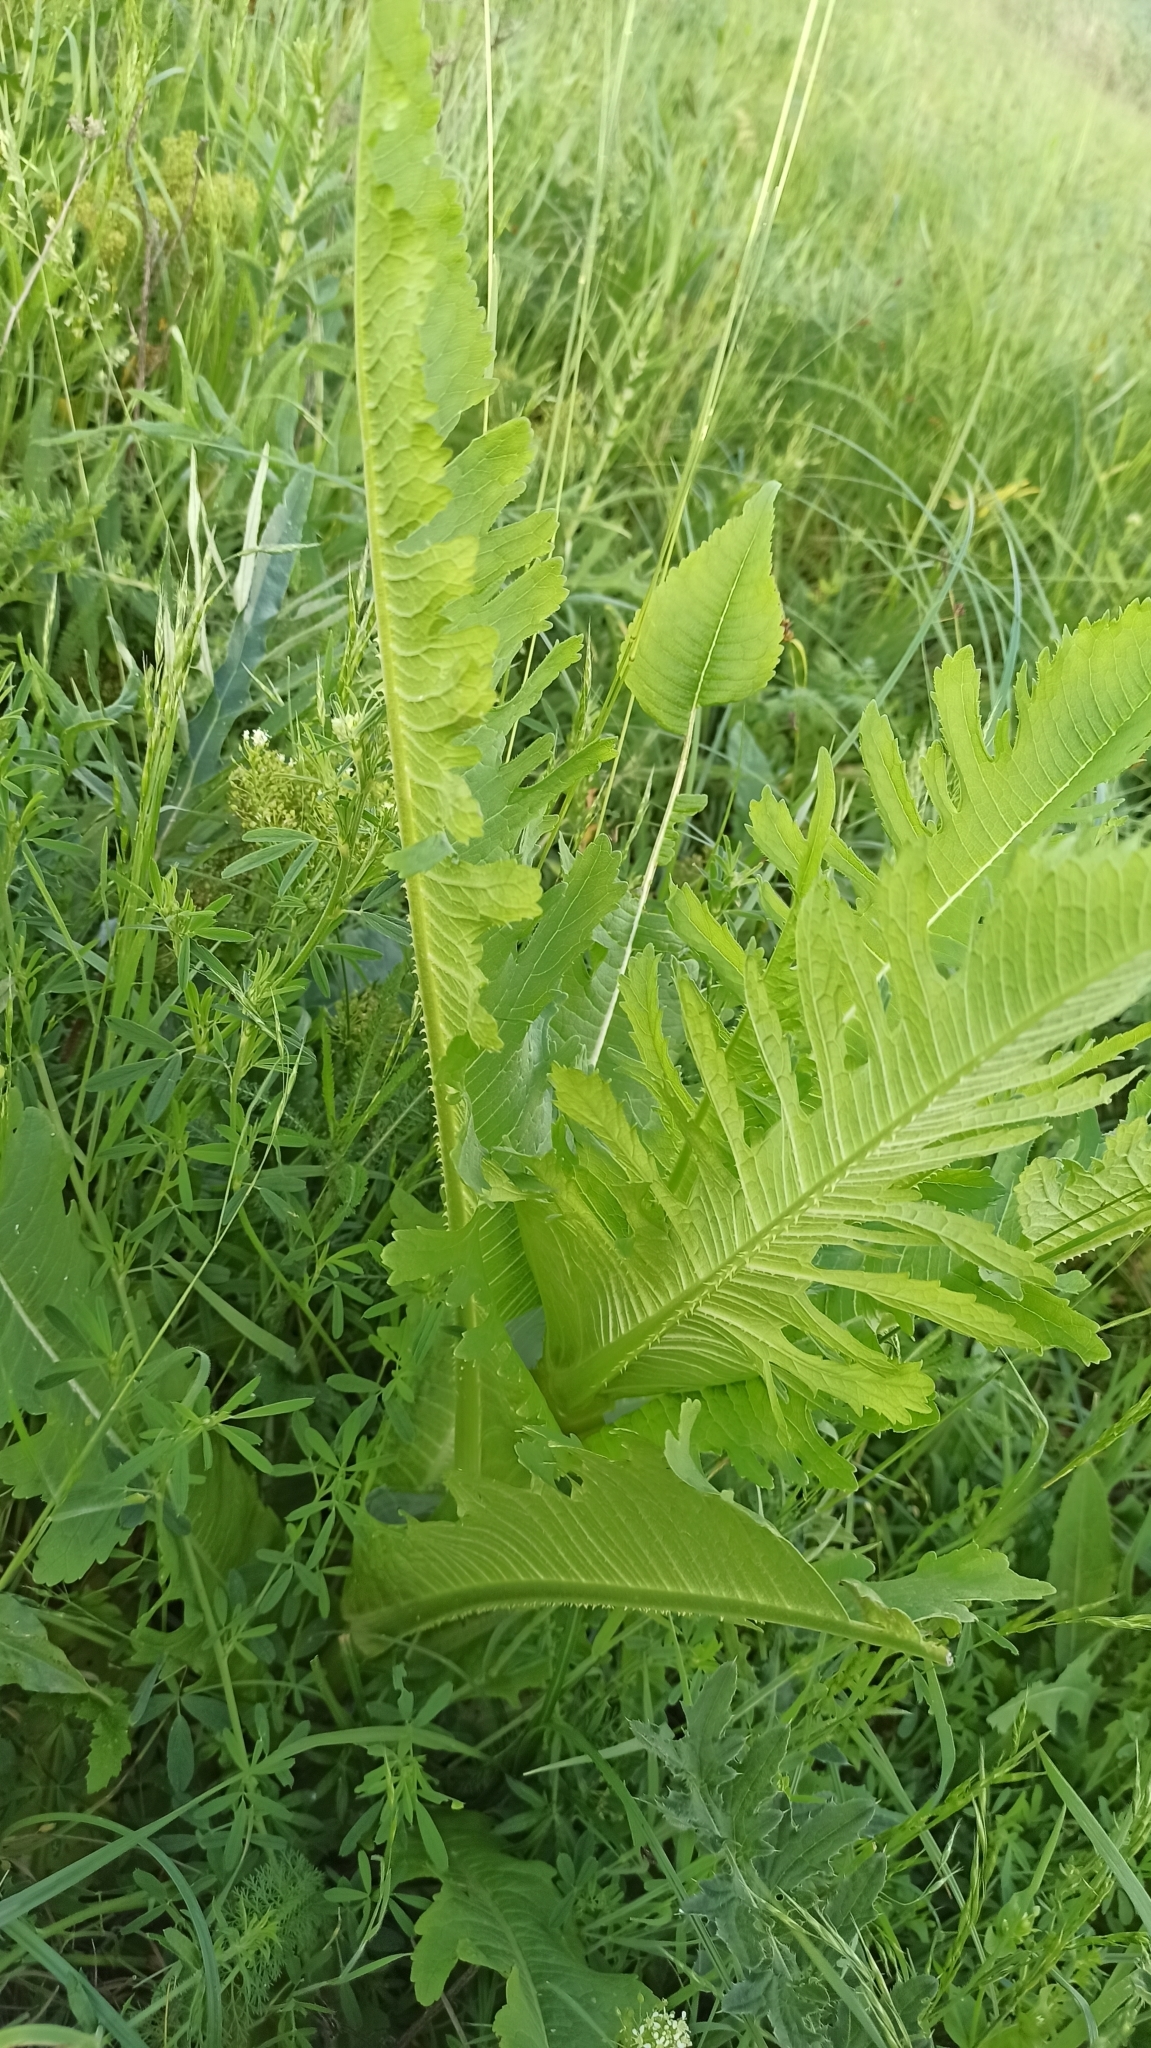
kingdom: Plantae
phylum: Tracheophyta
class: Magnoliopsida
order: Dipsacales
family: Caprifoliaceae
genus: Dipsacus
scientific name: Dipsacus laciniatus
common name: Cut-leaved teasel
